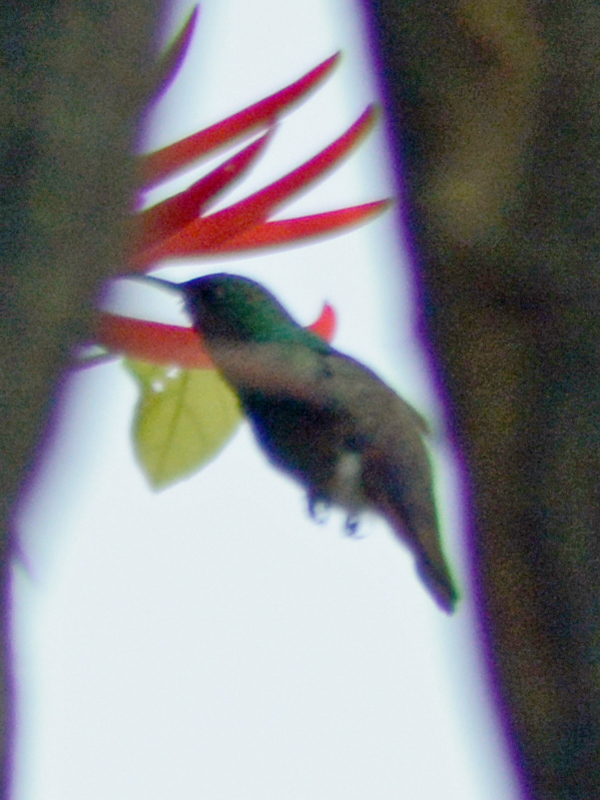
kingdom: Animalia
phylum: Chordata
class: Aves
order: Apodiformes
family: Trochilidae
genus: Saucerottia
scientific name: Saucerottia beryllina
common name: Berylline hummingbird
